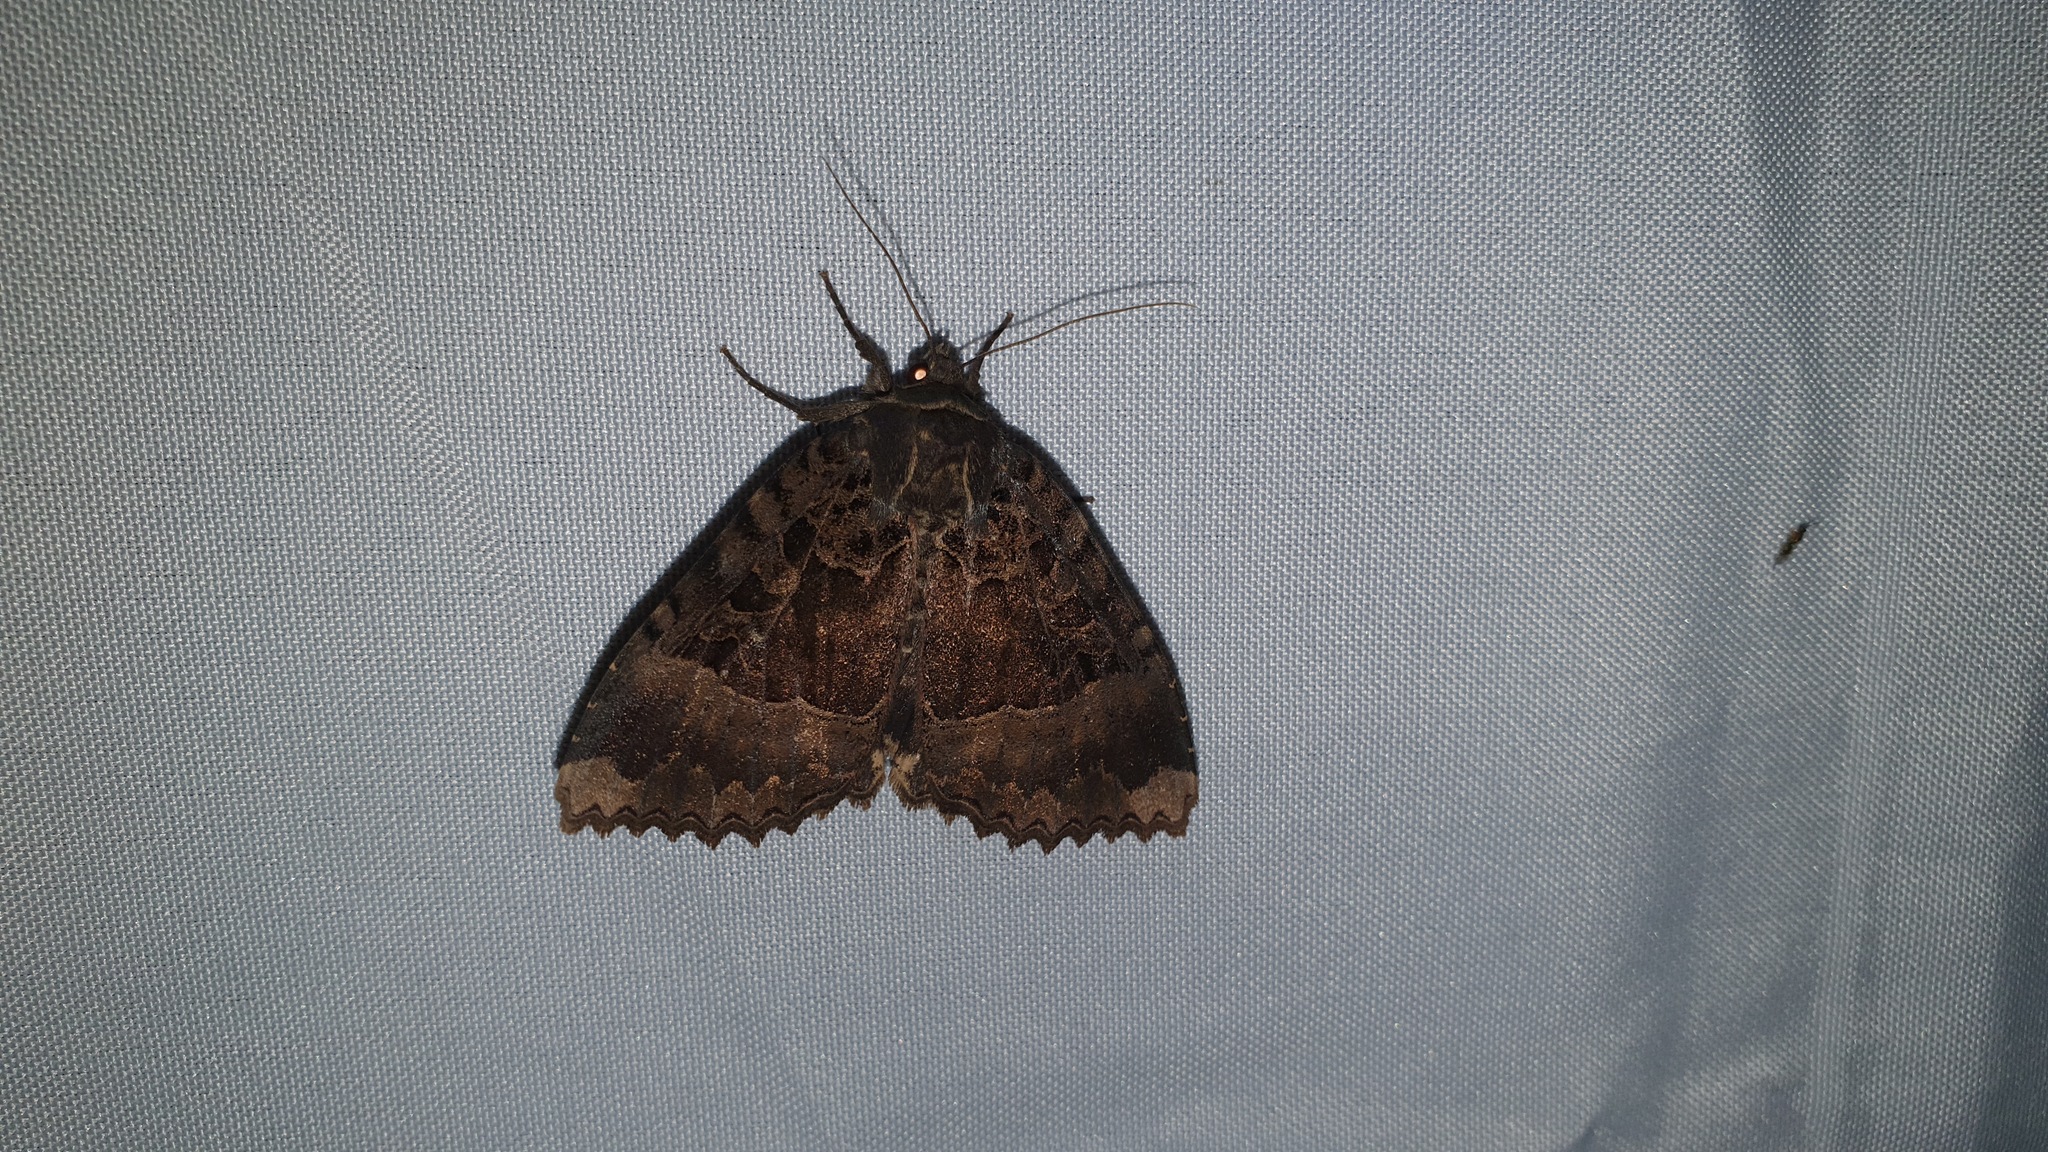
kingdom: Animalia
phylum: Arthropoda
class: Insecta
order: Lepidoptera
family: Noctuidae
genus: Mormo
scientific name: Mormo maura
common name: Old lady
